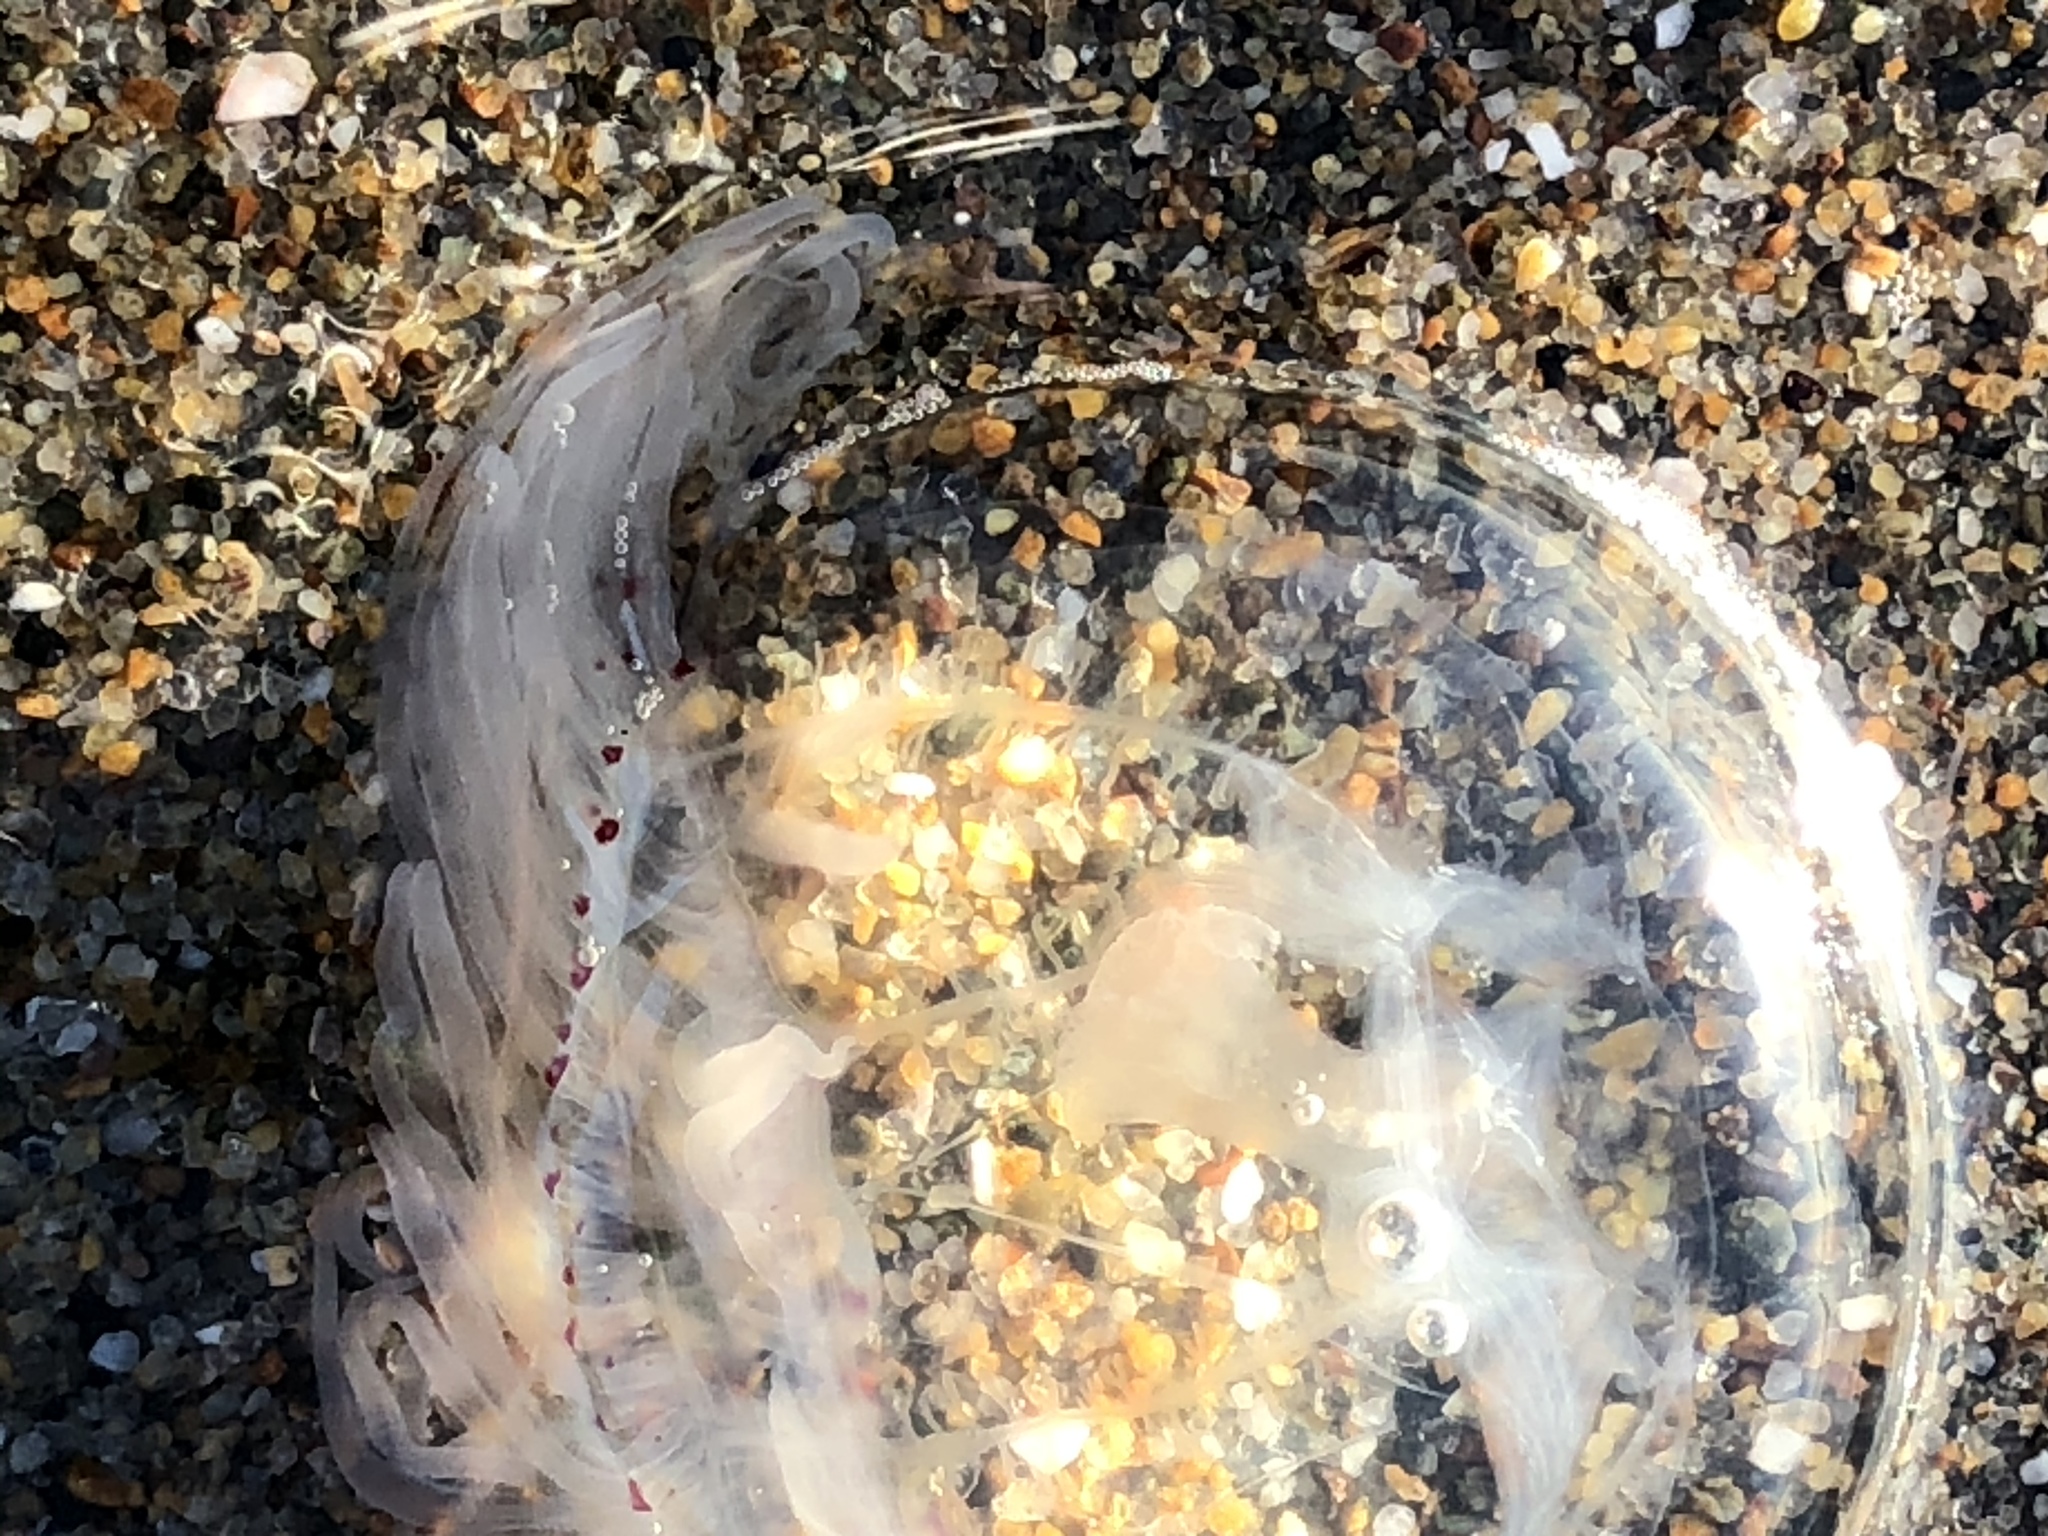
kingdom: Animalia
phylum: Cnidaria
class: Hydrozoa
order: Anthoathecata
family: Corynidae
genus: Polyorchis
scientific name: Polyorchis penicillatus
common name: Penicillate jellyfish
